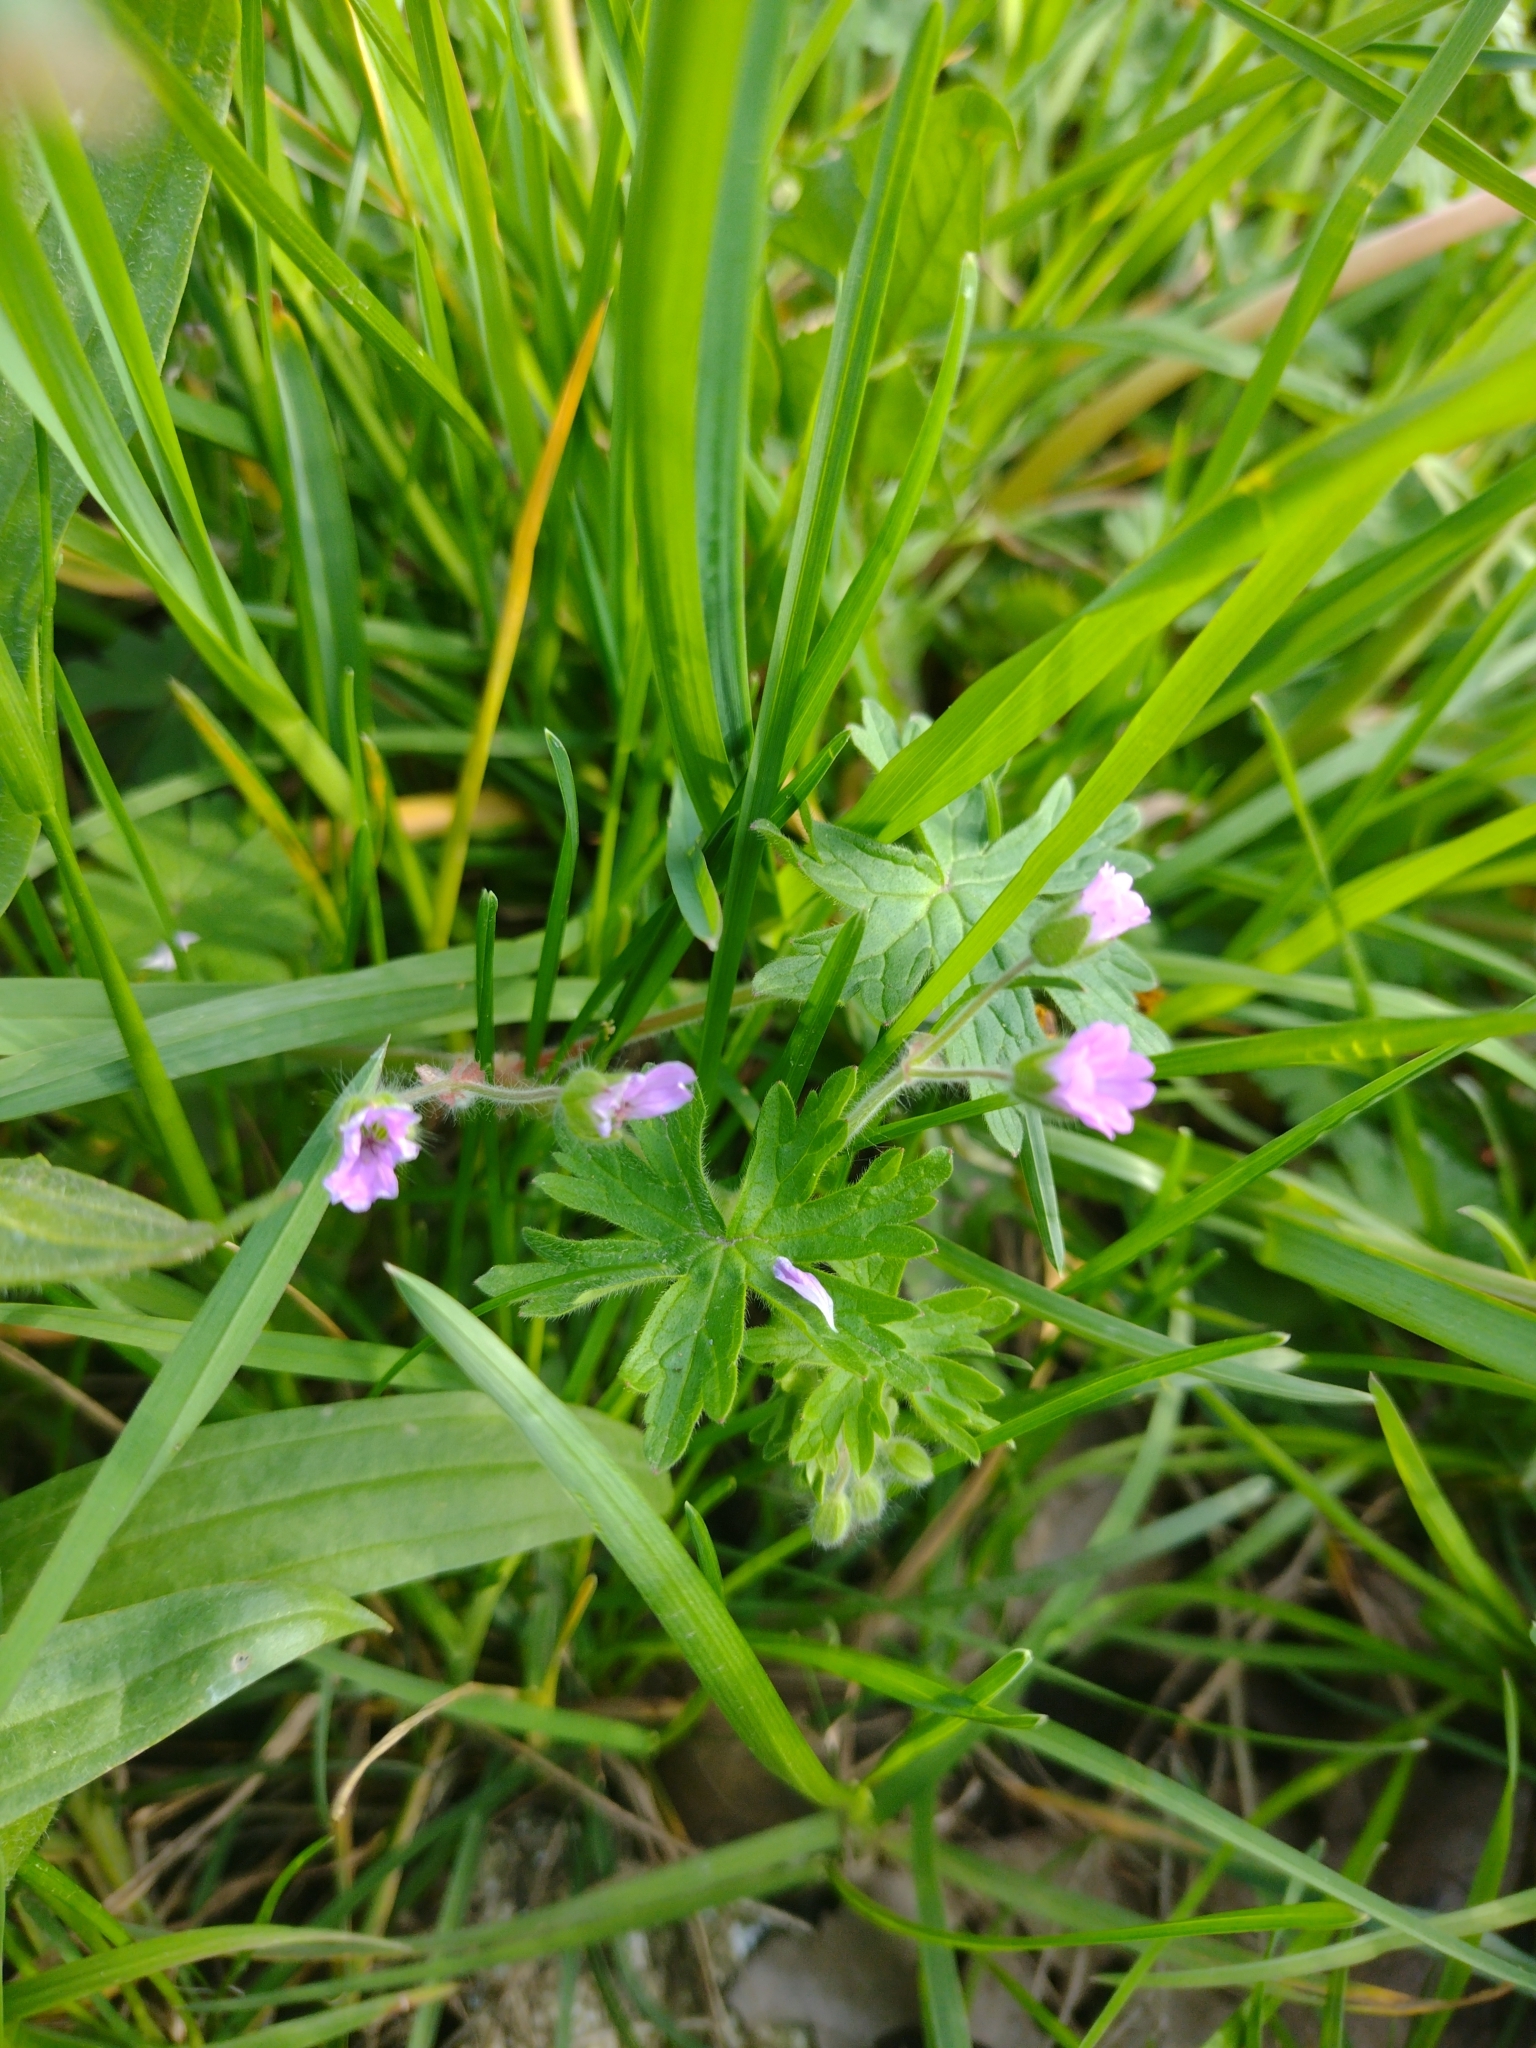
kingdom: Plantae
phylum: Tracheophyta
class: Magnoliopsida
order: Geraniales
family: Geraniaceae
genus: Geranium
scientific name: Geranium molle
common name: Dove's-foot crane's-bill
